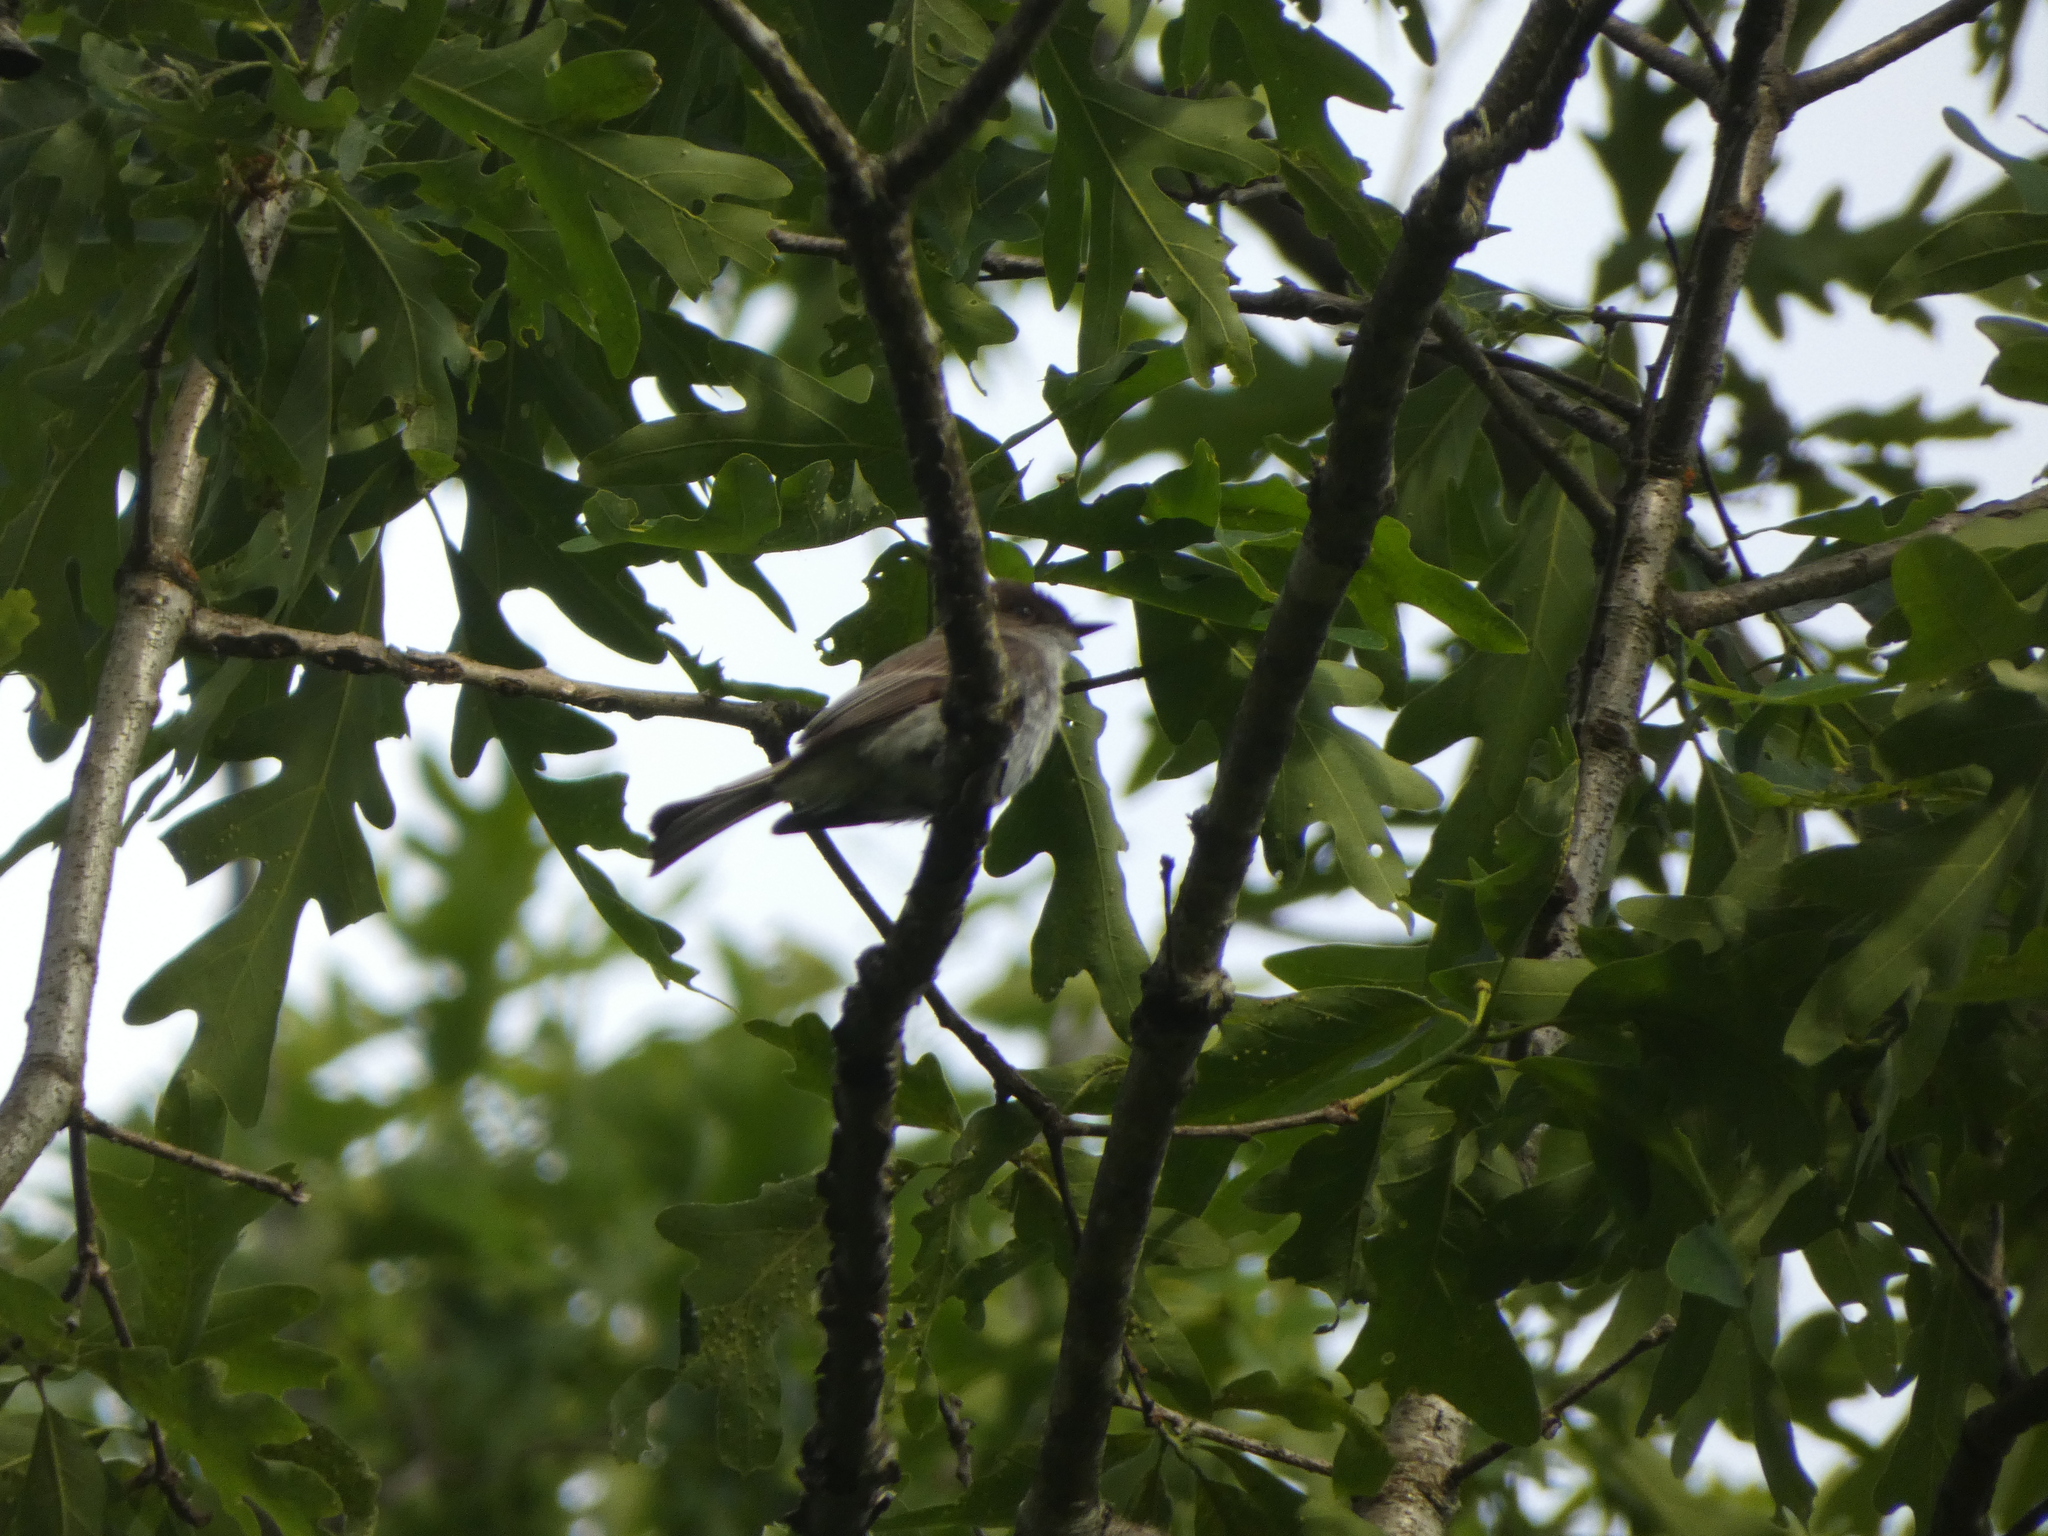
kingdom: Animalia
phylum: Chordata
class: Aves
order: Passeriformes
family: Tyrannidae
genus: Sayornis
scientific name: Sayornis phoebe
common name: Eastern phoebe
